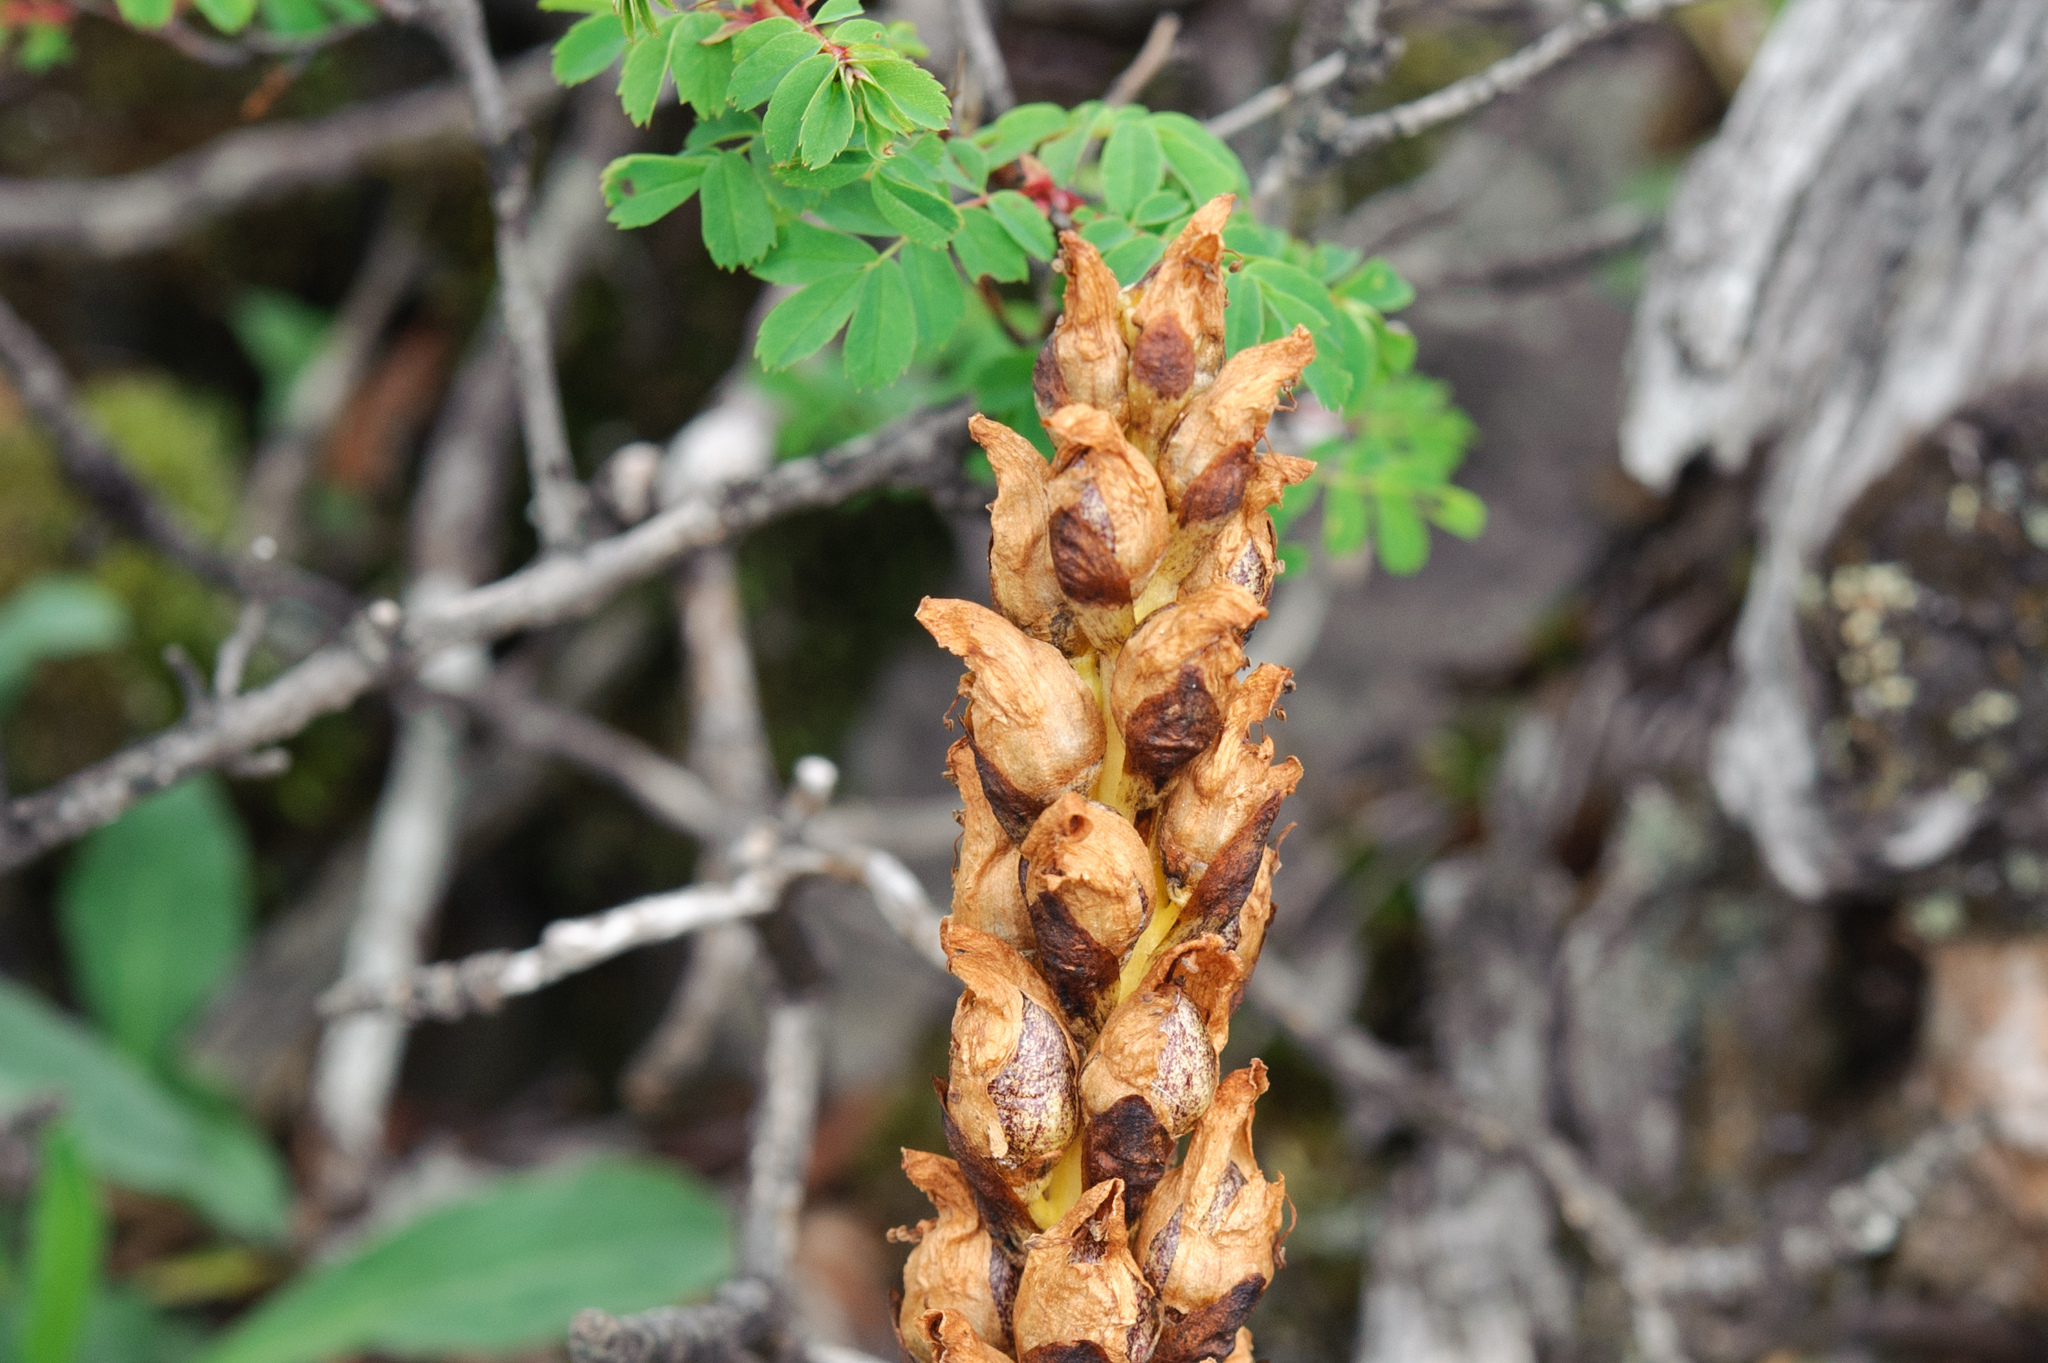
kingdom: Plantae
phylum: Tracheophyta
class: Magnoliopsida
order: Lamiales
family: Orobanchaceae
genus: Boschniakia
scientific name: Boschniakia himalaica
